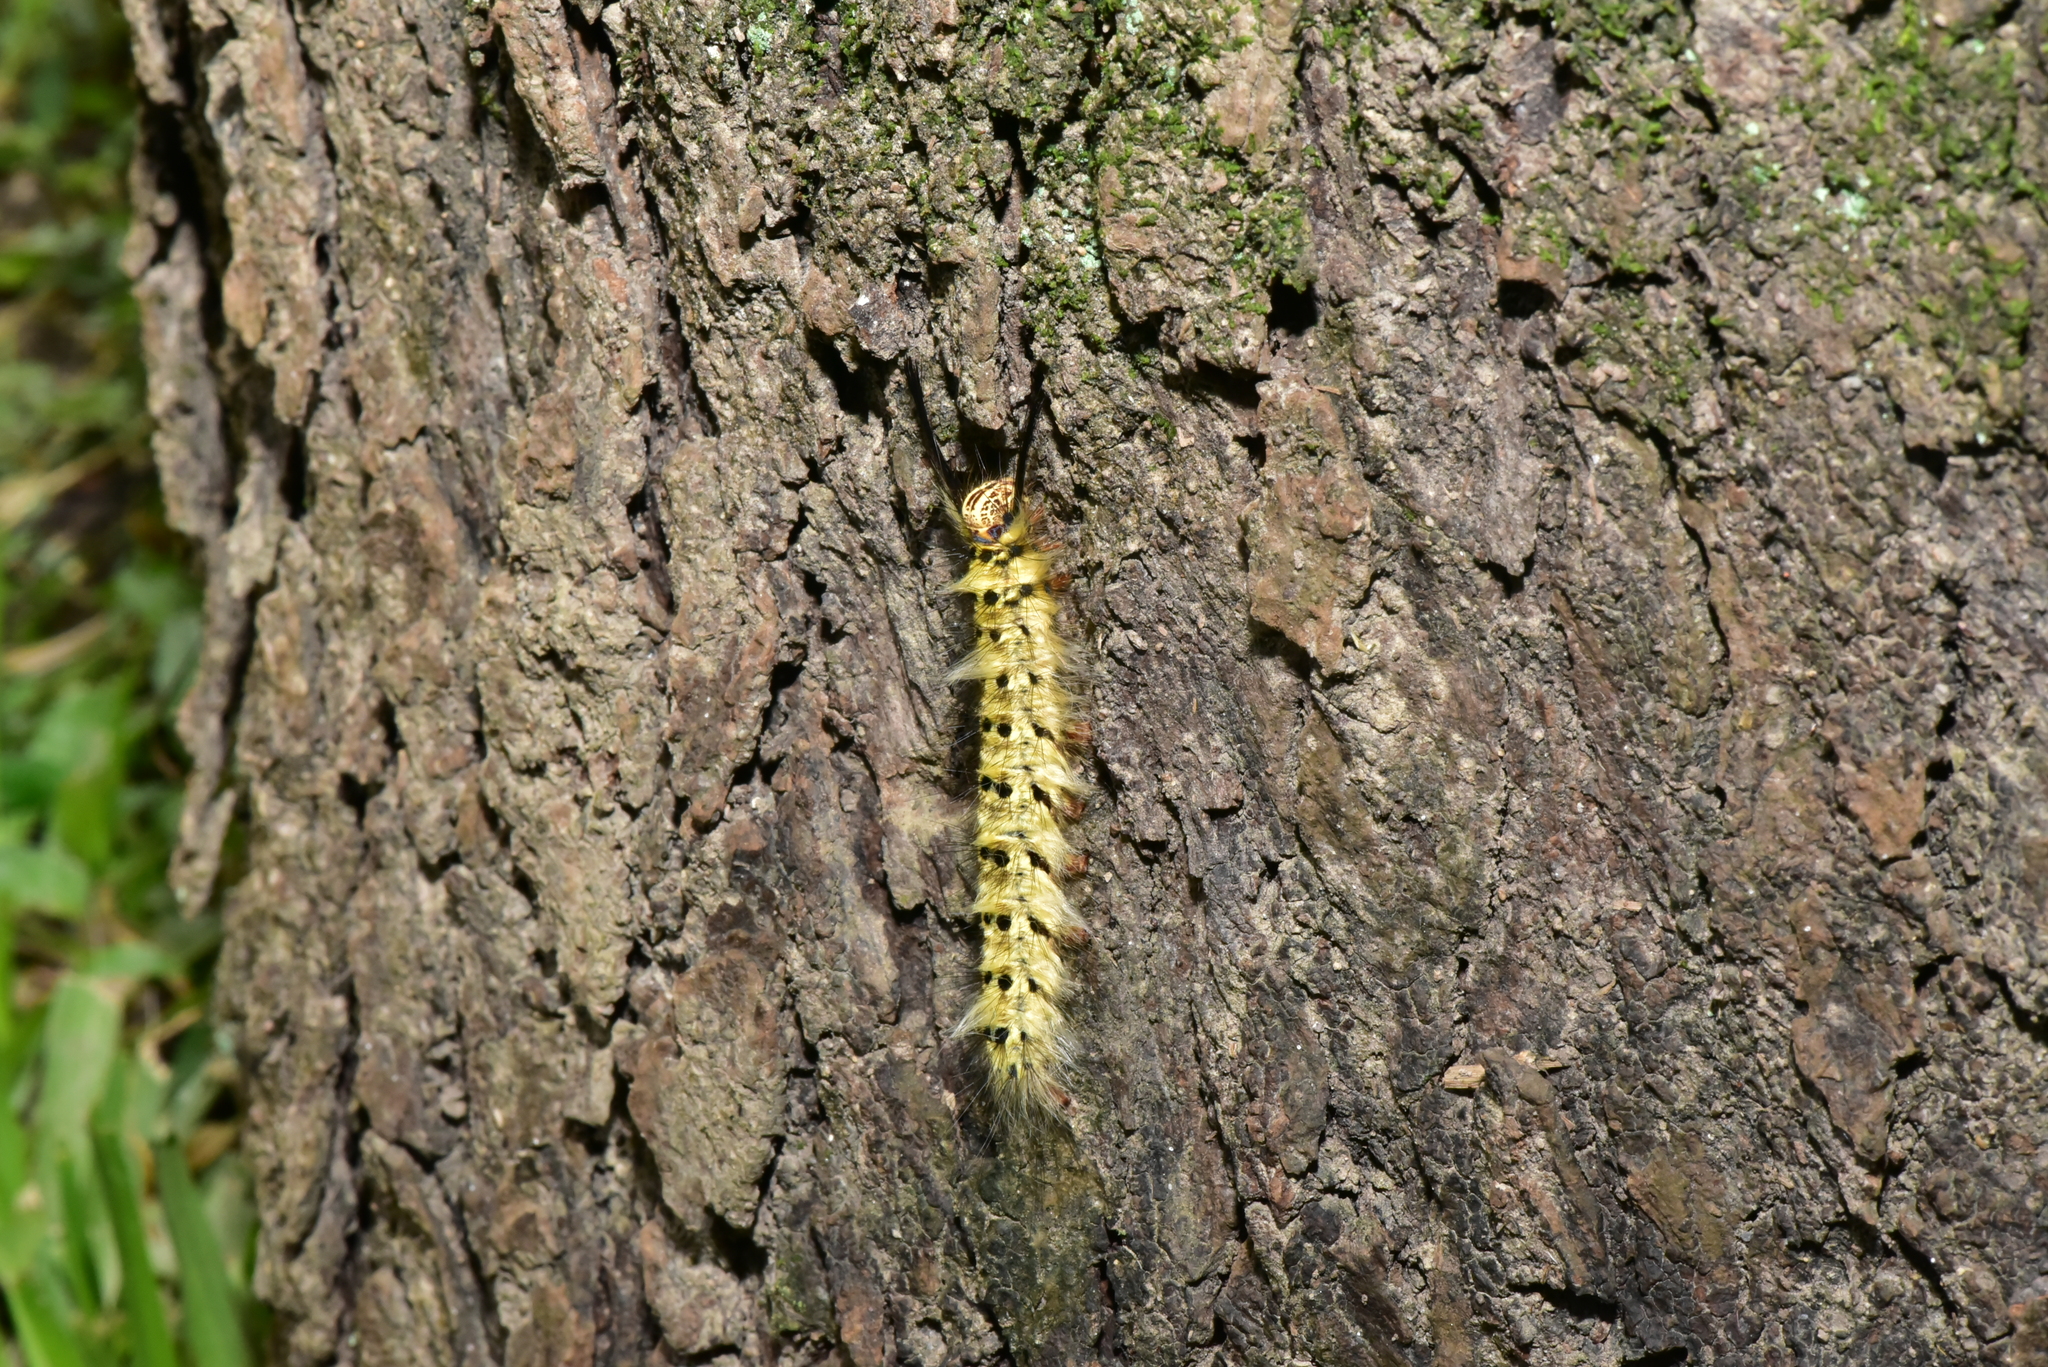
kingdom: Animalia
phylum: Arthropoda
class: Insecta
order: Lepidoptera
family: Lasiocampidae
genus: Trabala
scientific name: Trabala vishnou
